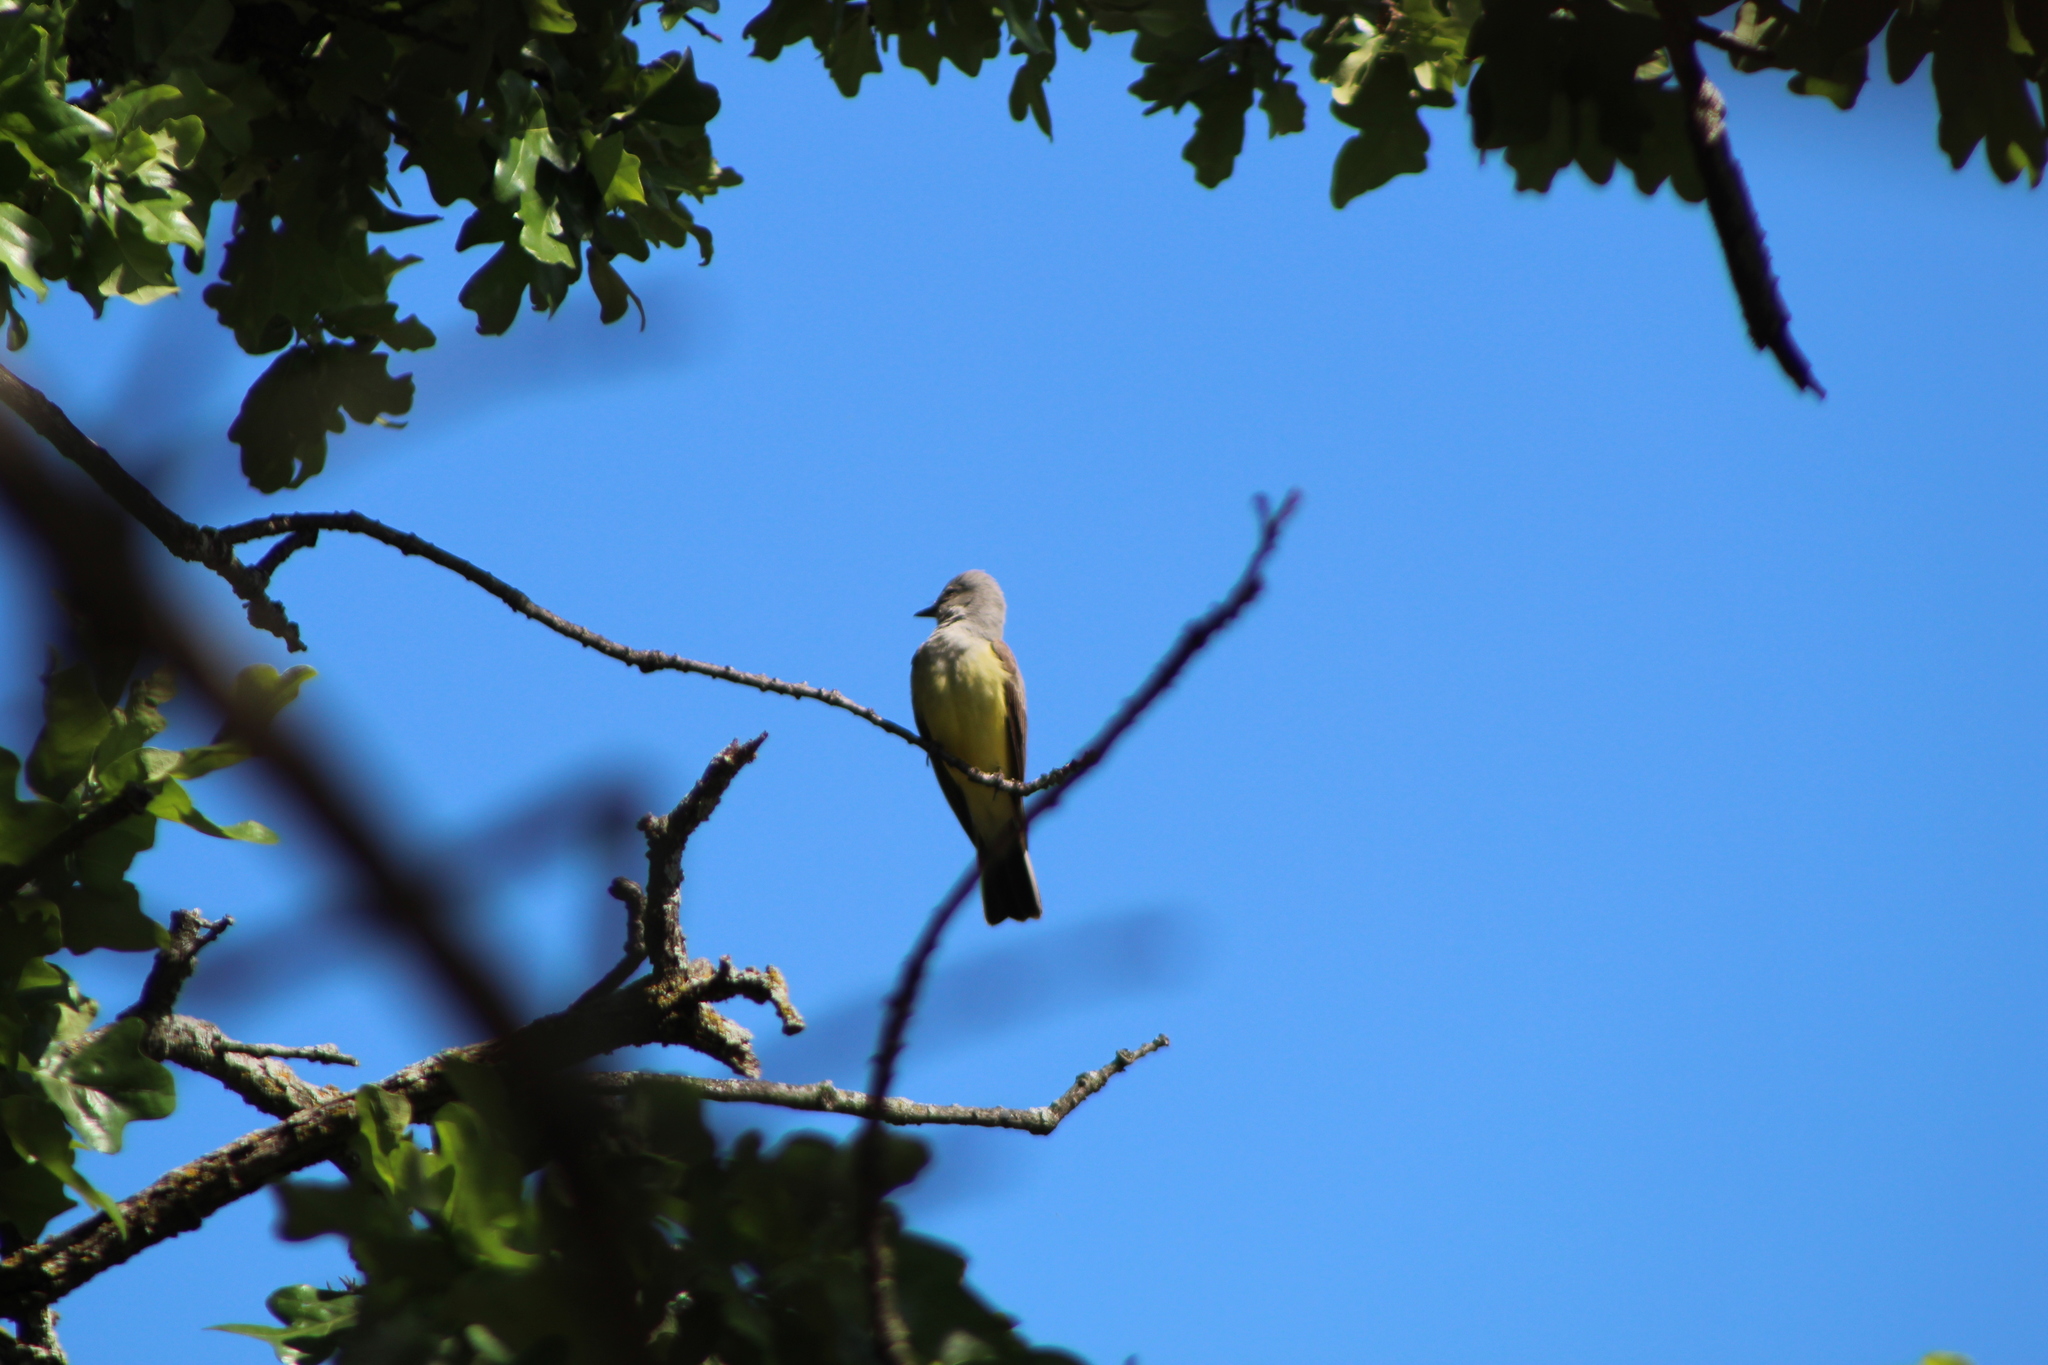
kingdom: Animalia
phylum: Chordata
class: Aves
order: Passeriformes
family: Tyrannidae
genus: Tyrannus
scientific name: Tyrannus verticalis
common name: Western kingbird
